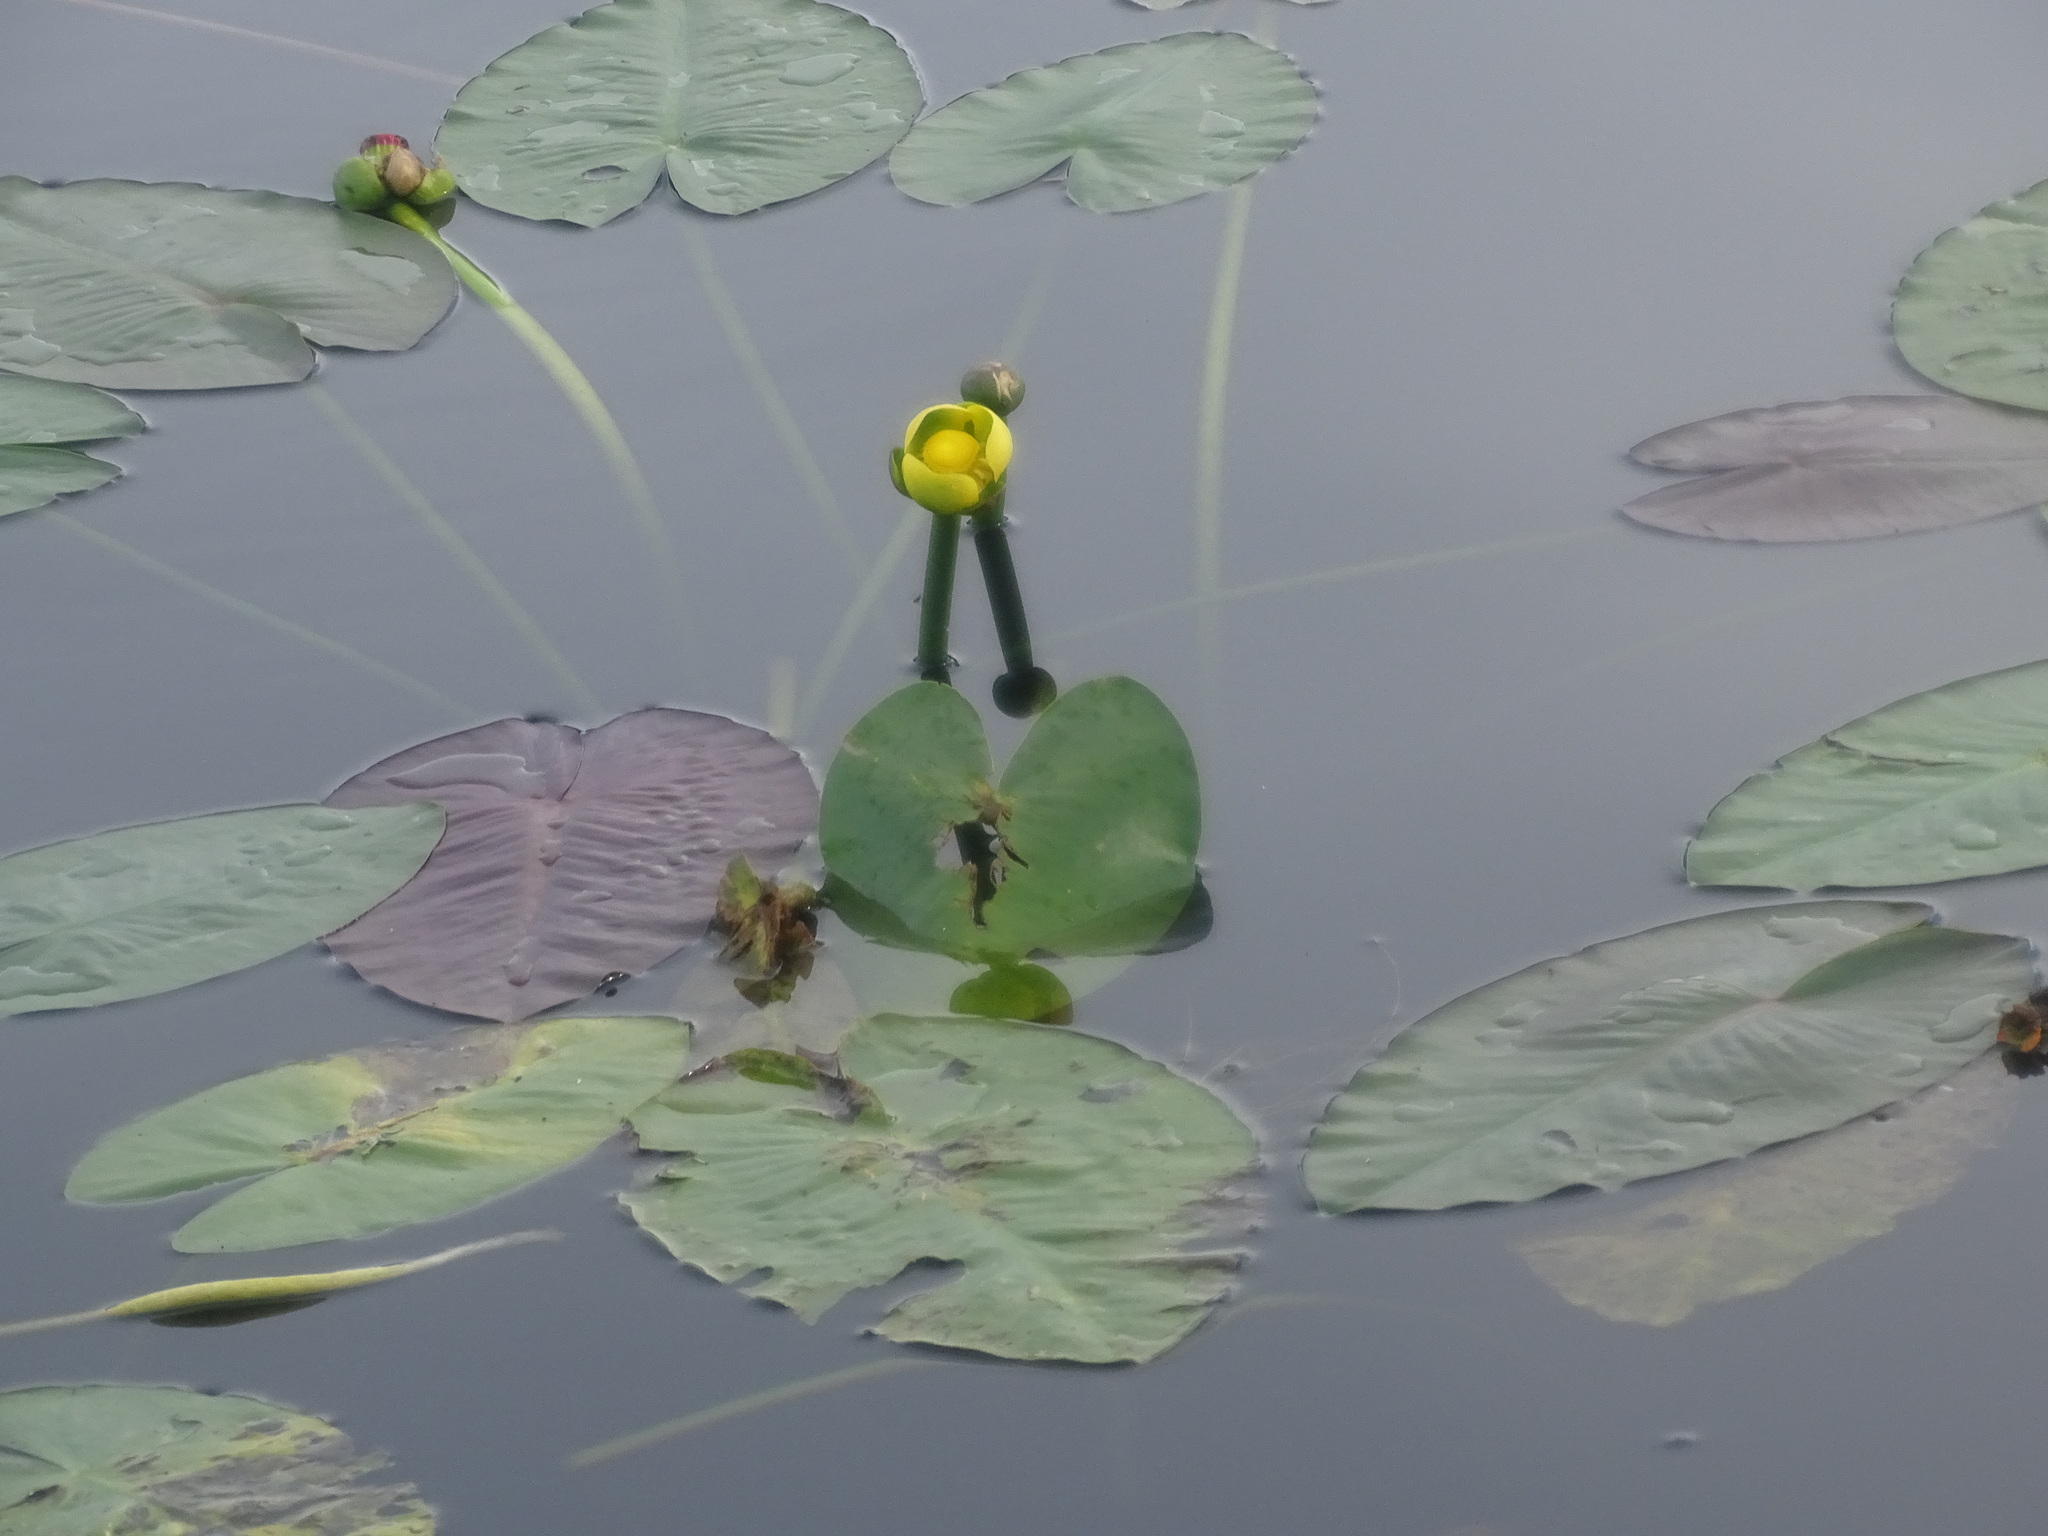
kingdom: Plantae
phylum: Tracheophyta
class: Magnoliopsida
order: Nymphaeales
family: Nymphaeaceae
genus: Nuphar
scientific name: Nuphar advena
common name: Spatter-dock
